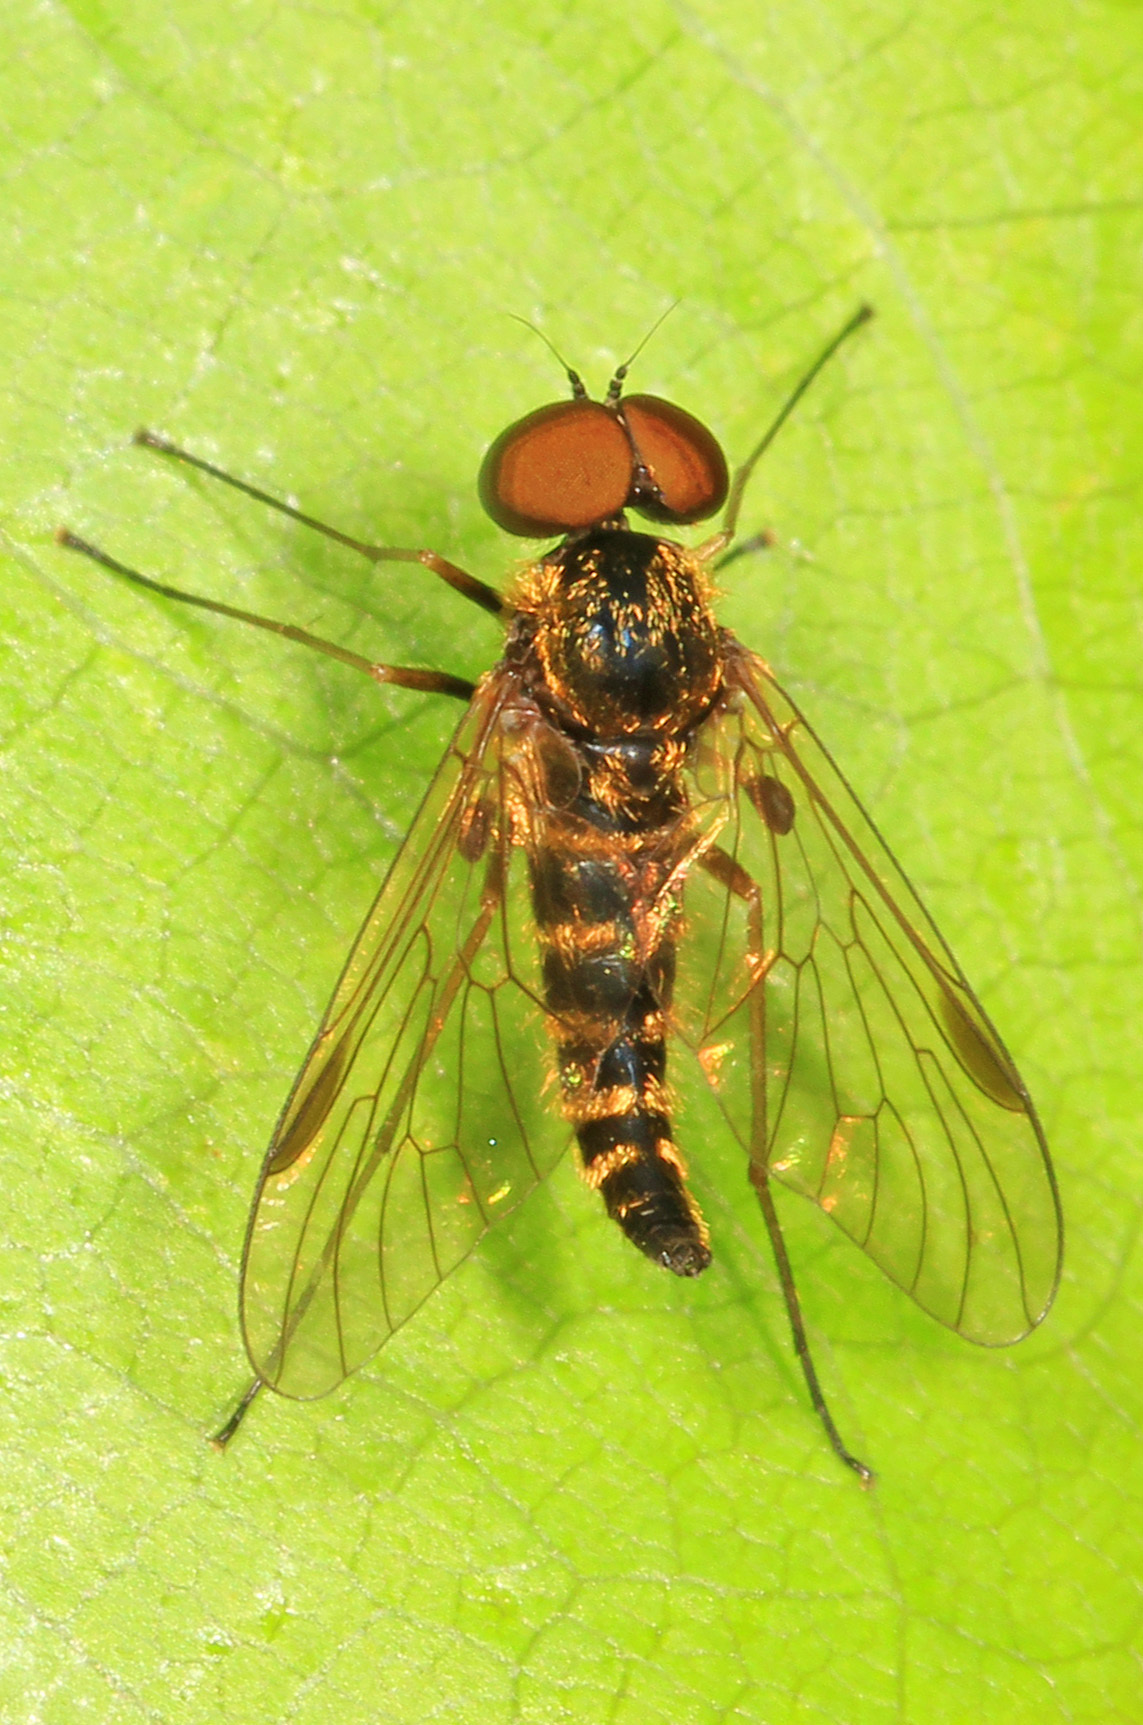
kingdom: Animalia
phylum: Arthropoda
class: Insecta
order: Diptera
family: Rhagionidae
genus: Chrysopilus
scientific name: Chrysopilus fasciatus
